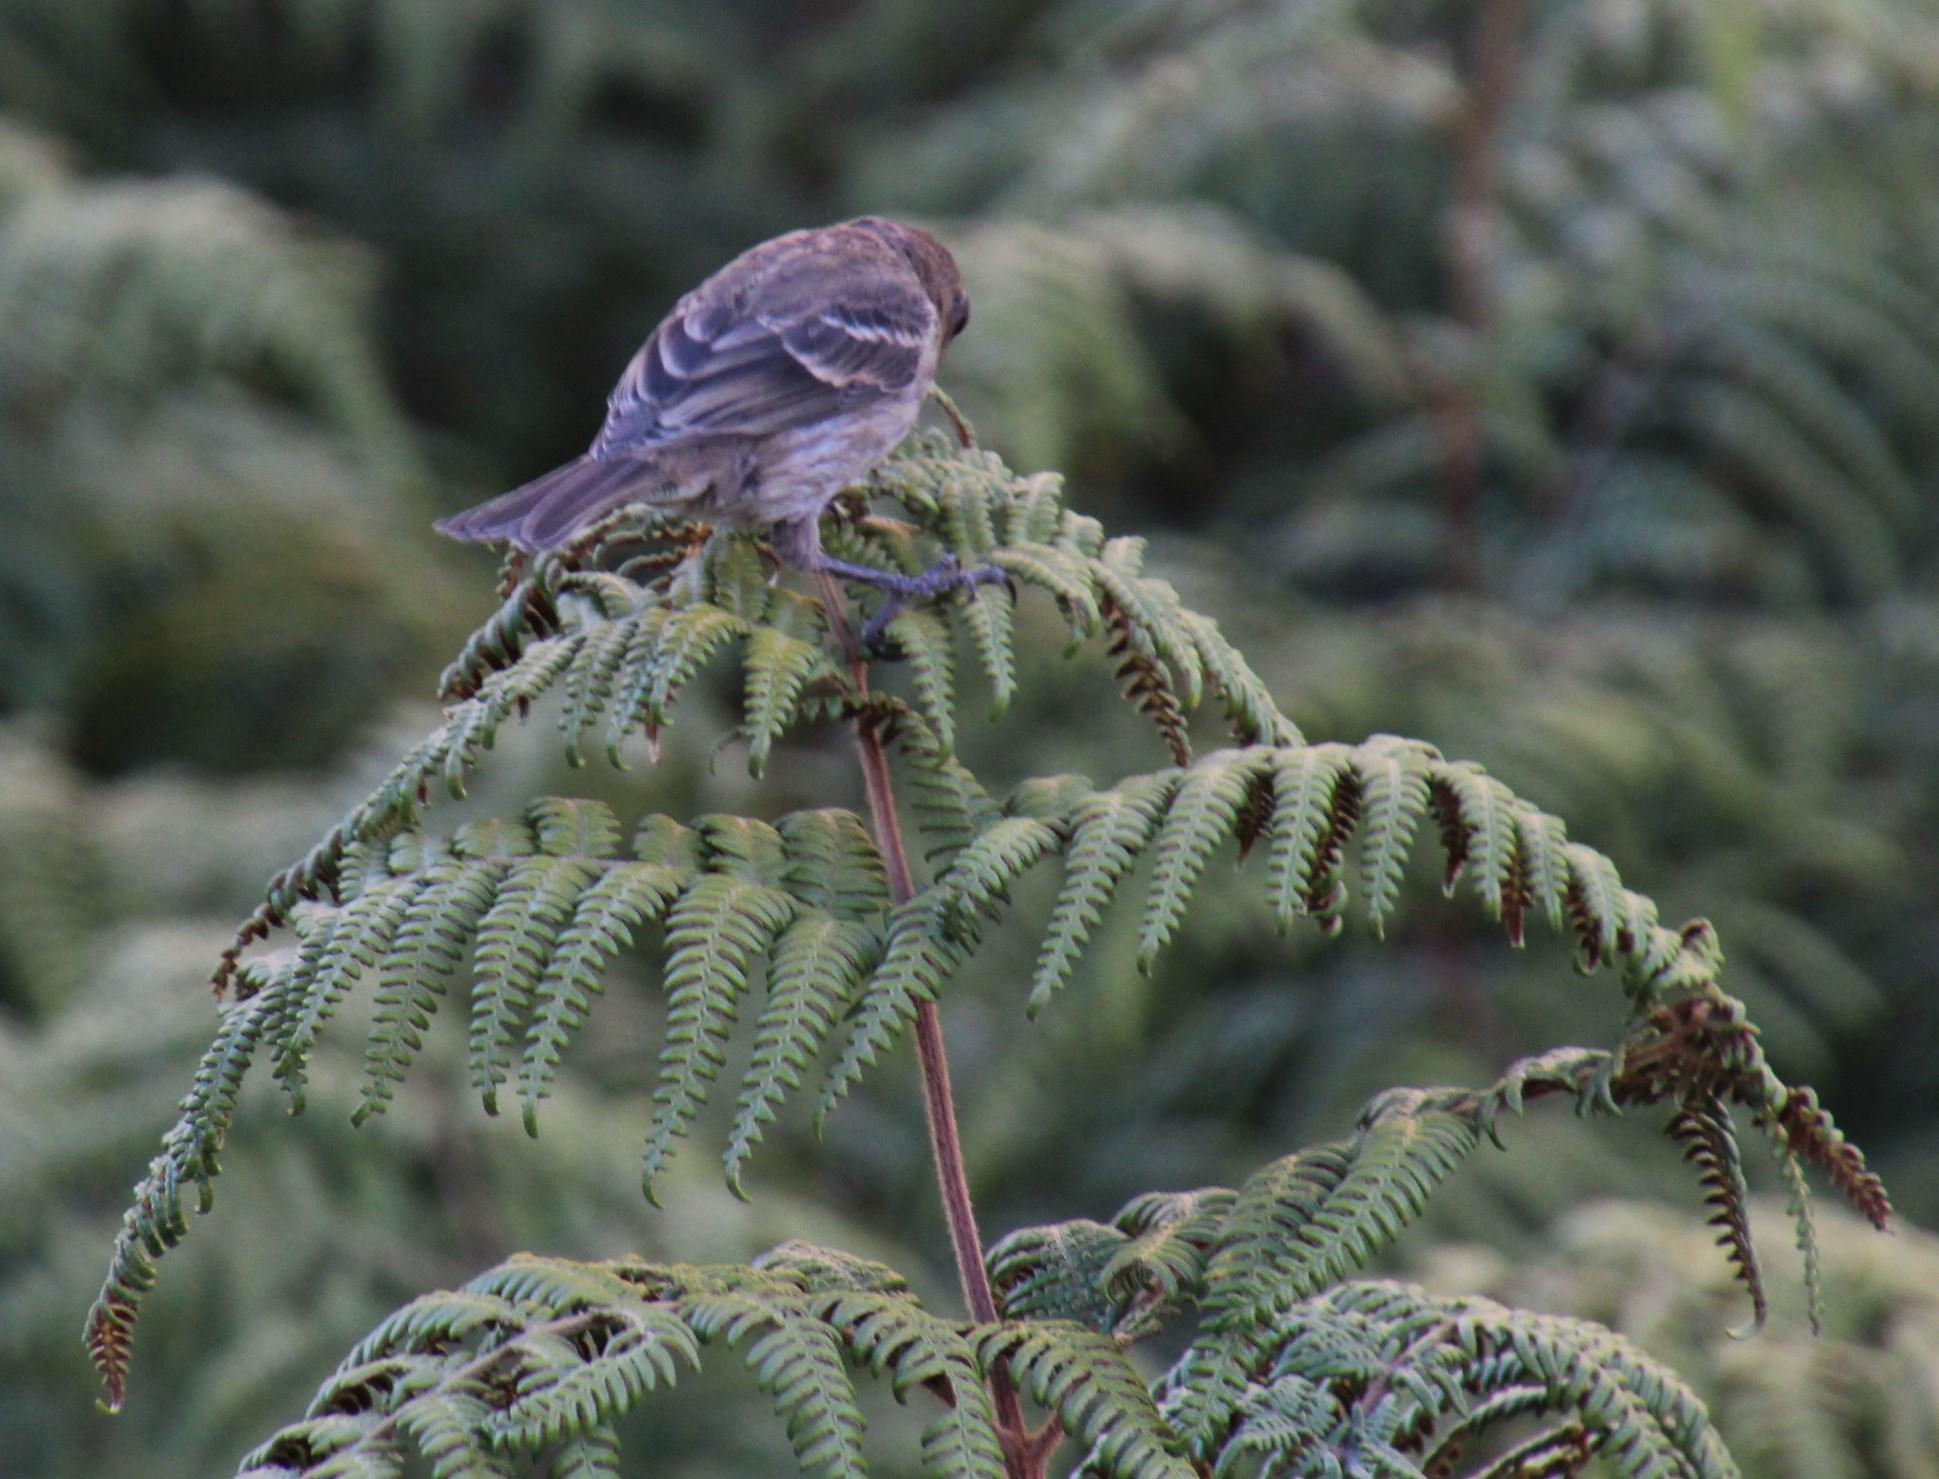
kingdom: Animalia
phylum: Chordata
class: Aves
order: Passeriformes
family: Fringillidae
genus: Crithagra
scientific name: Crithagra leucoptera
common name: Protea canary
